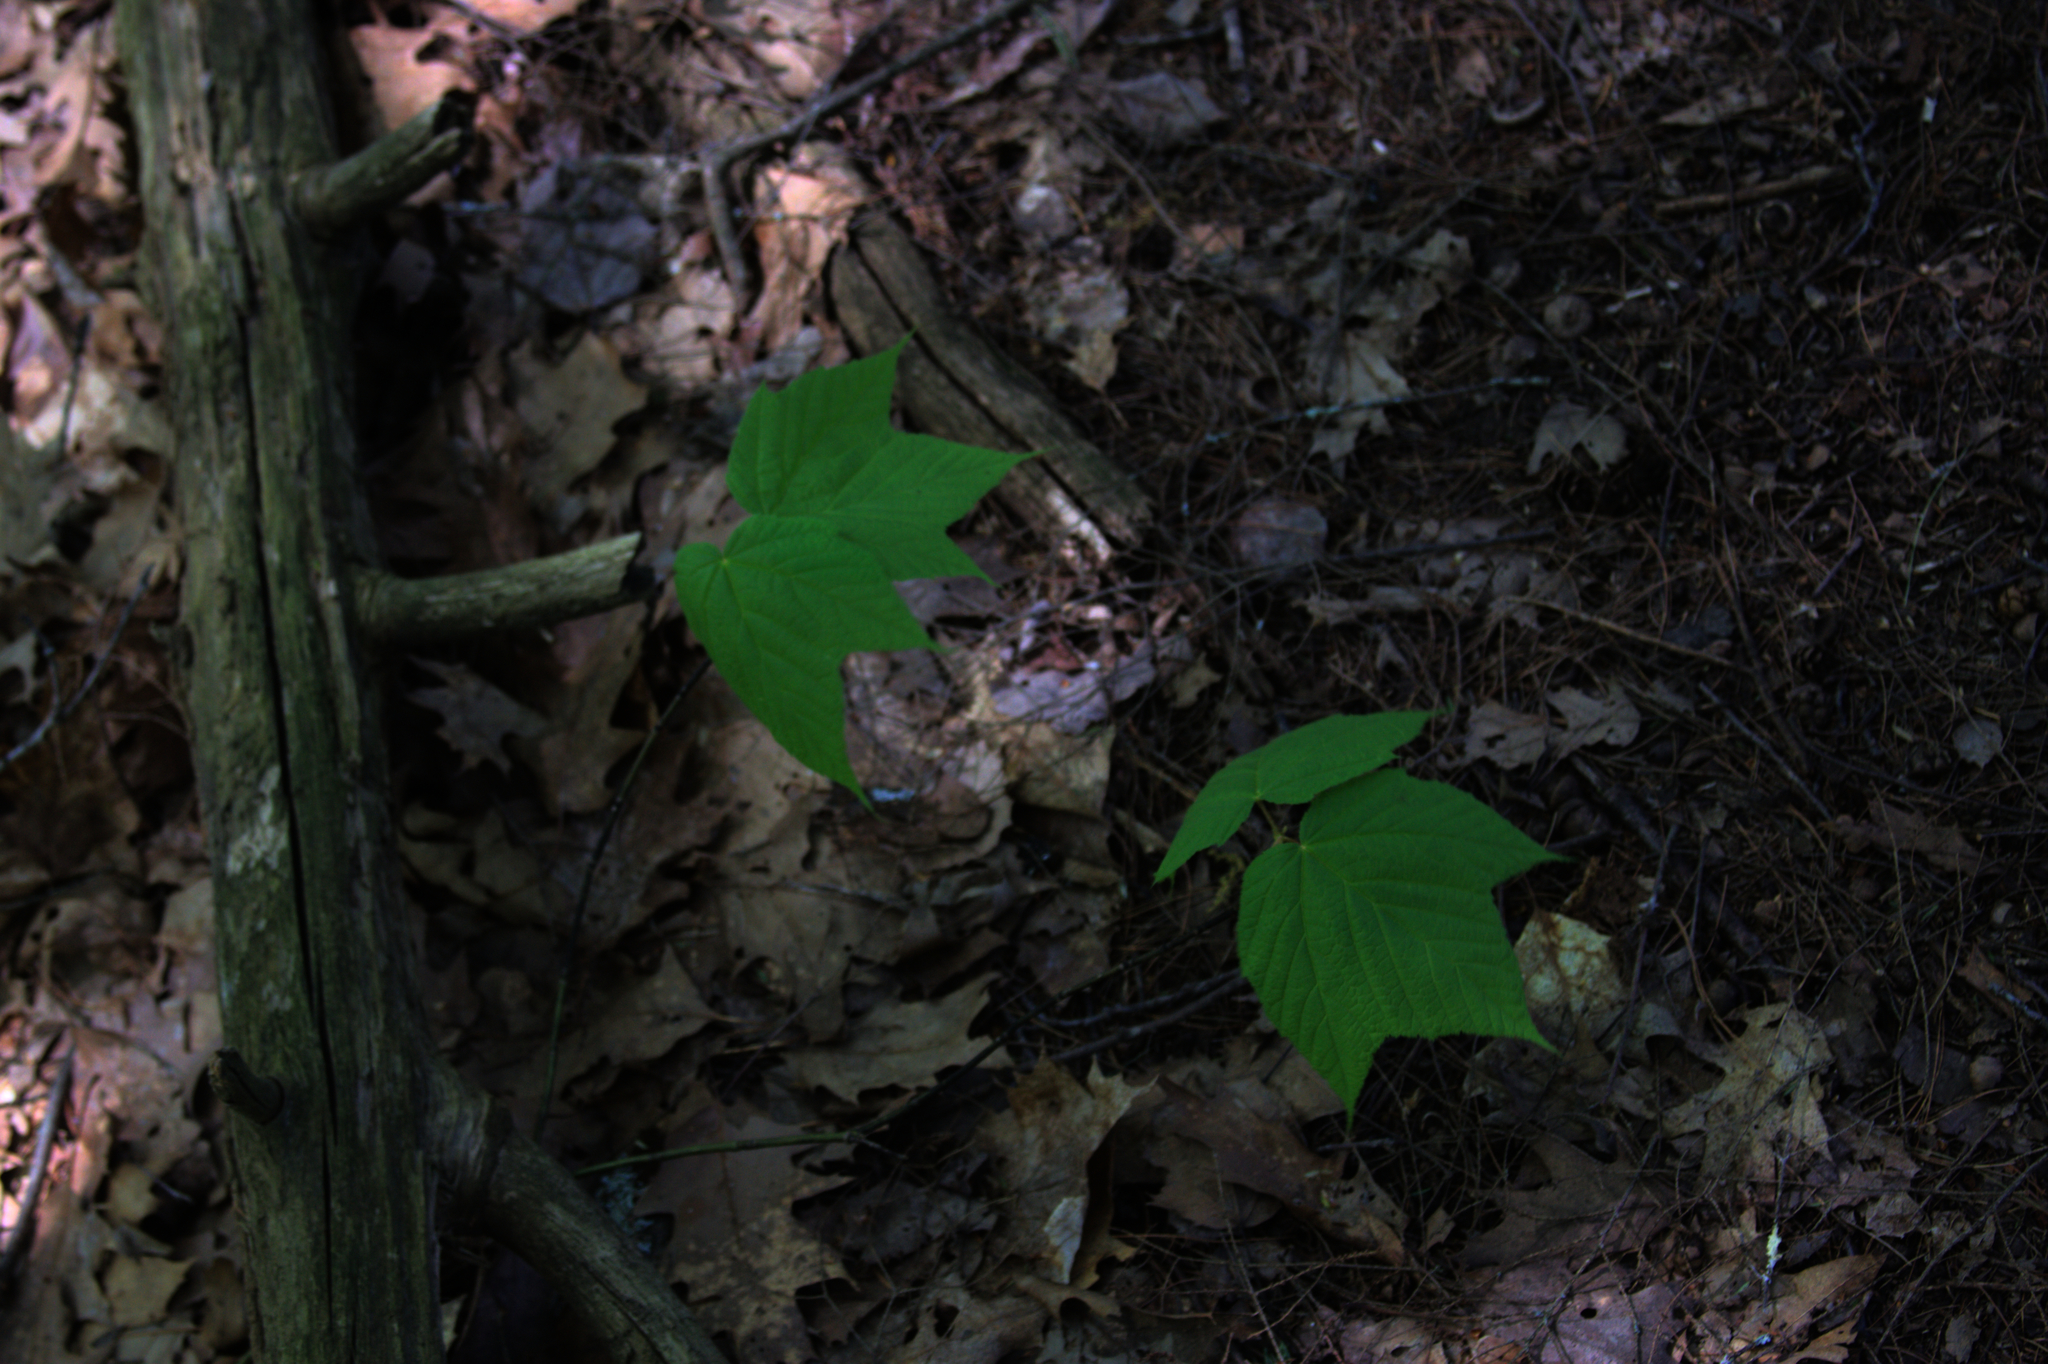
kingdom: Plantae
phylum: Tracheophyta
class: Magnoliopsida
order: Sapindales
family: Sapindaceae
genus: Acer
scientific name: Acer pensylvanicum
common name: Moosewood
